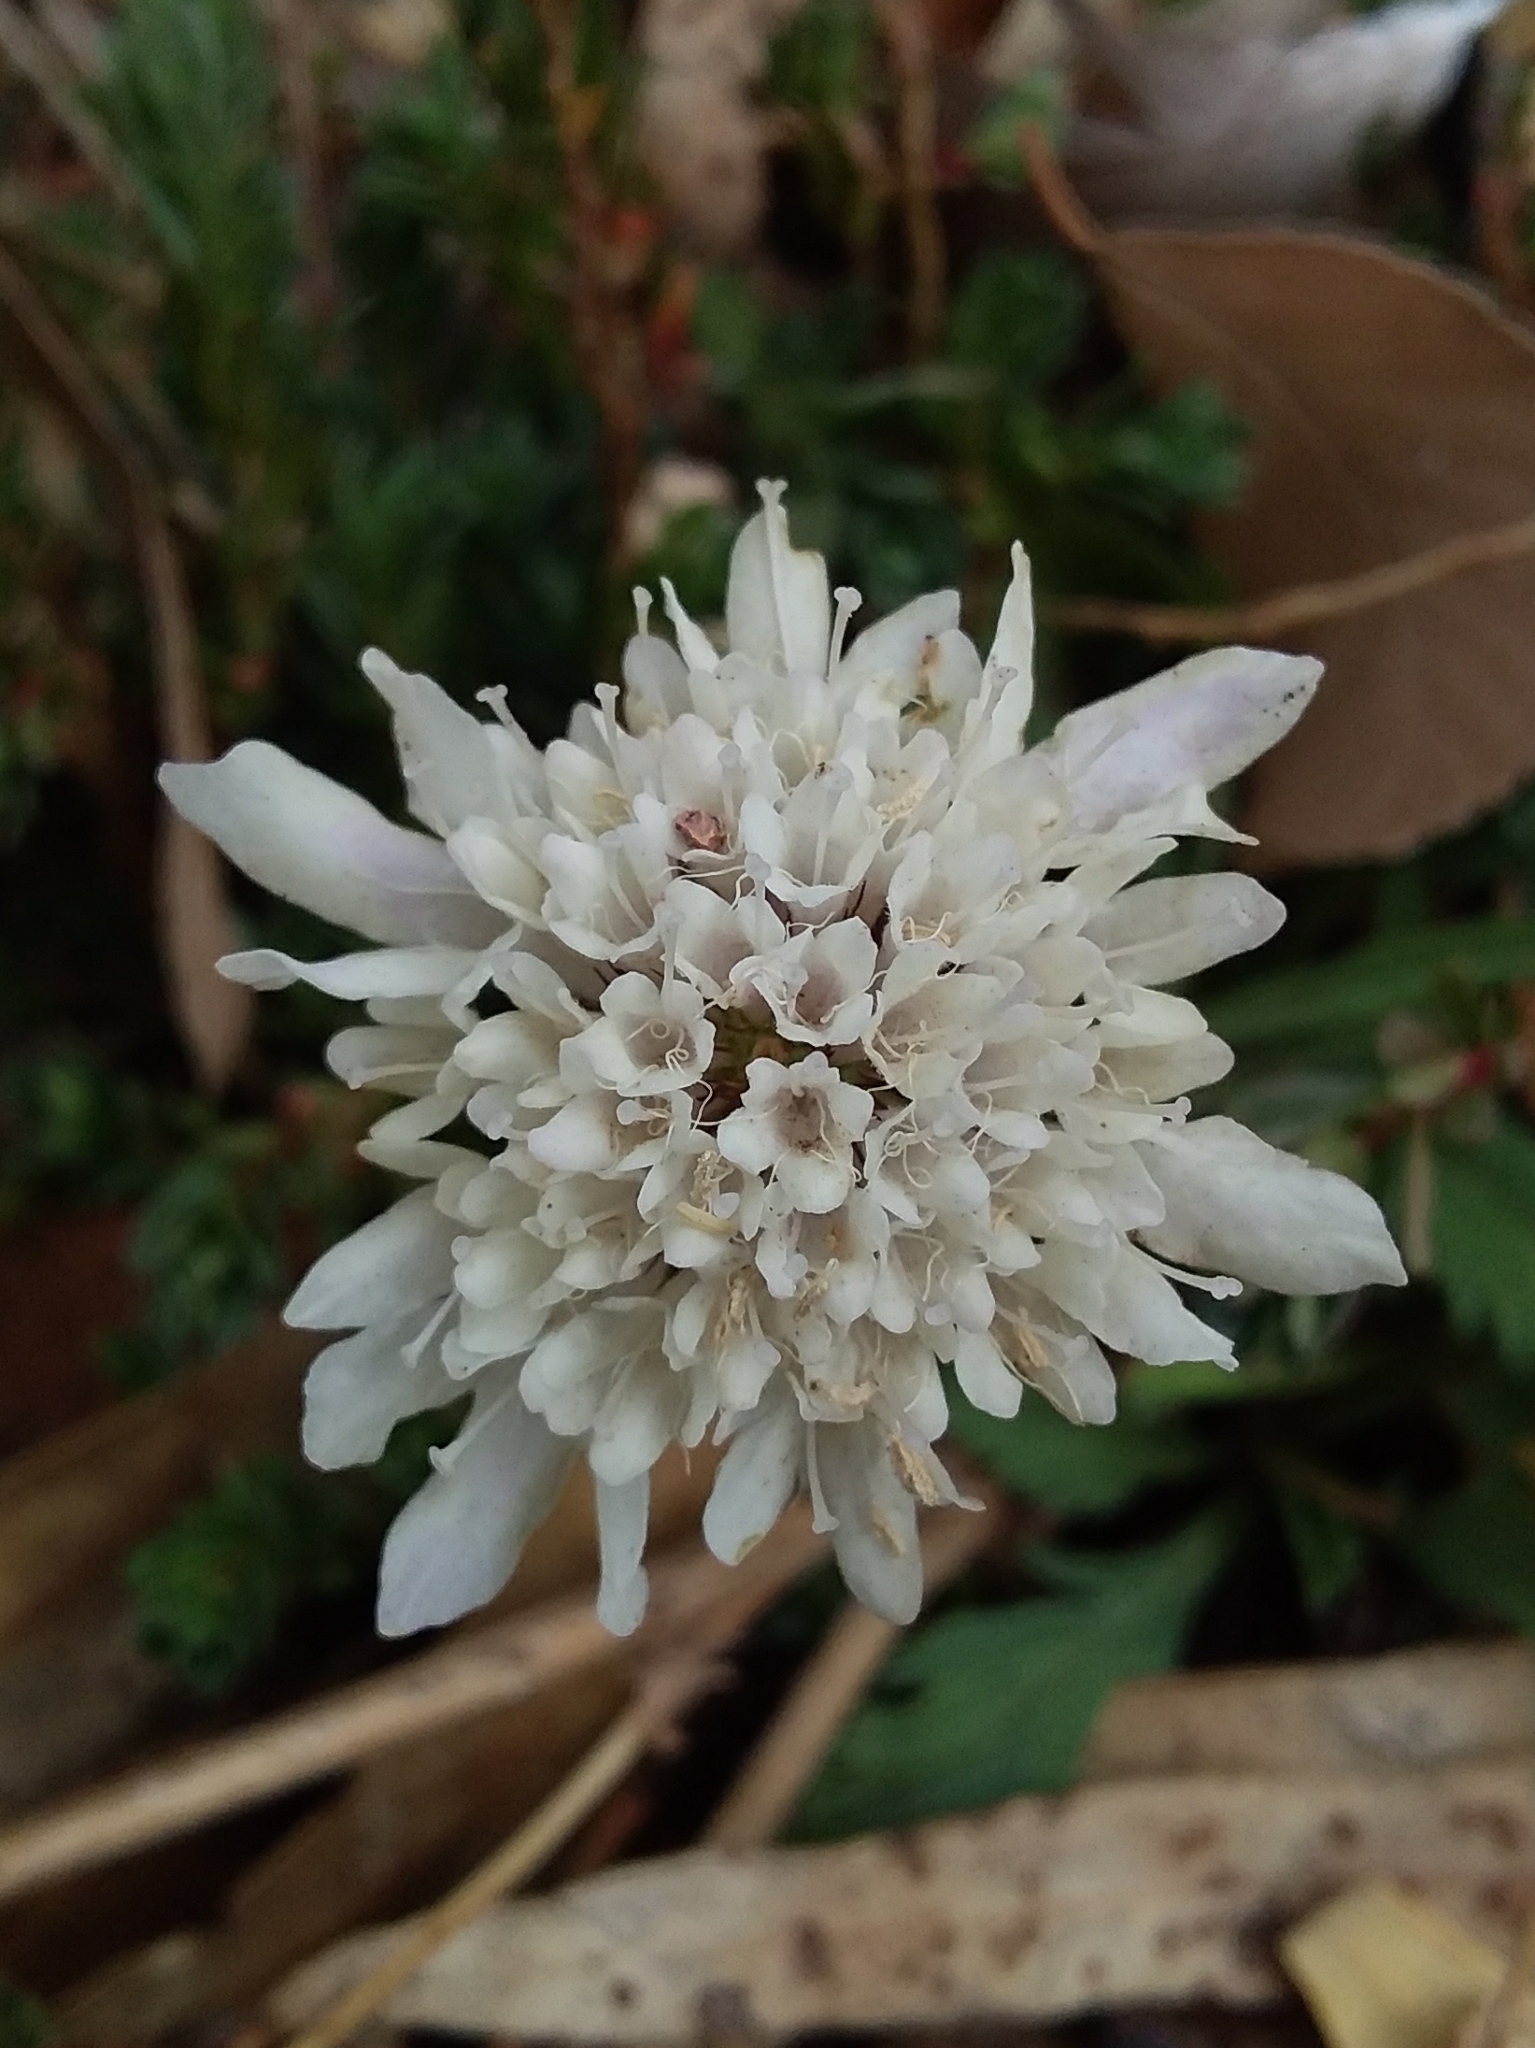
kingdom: Plantae
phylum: Tracheophyta
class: Magnoliopsida
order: Dipsacales
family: Caprifoliaceae
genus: Sixalix
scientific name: Sixalix atropurpurea
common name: Sweet scabious
